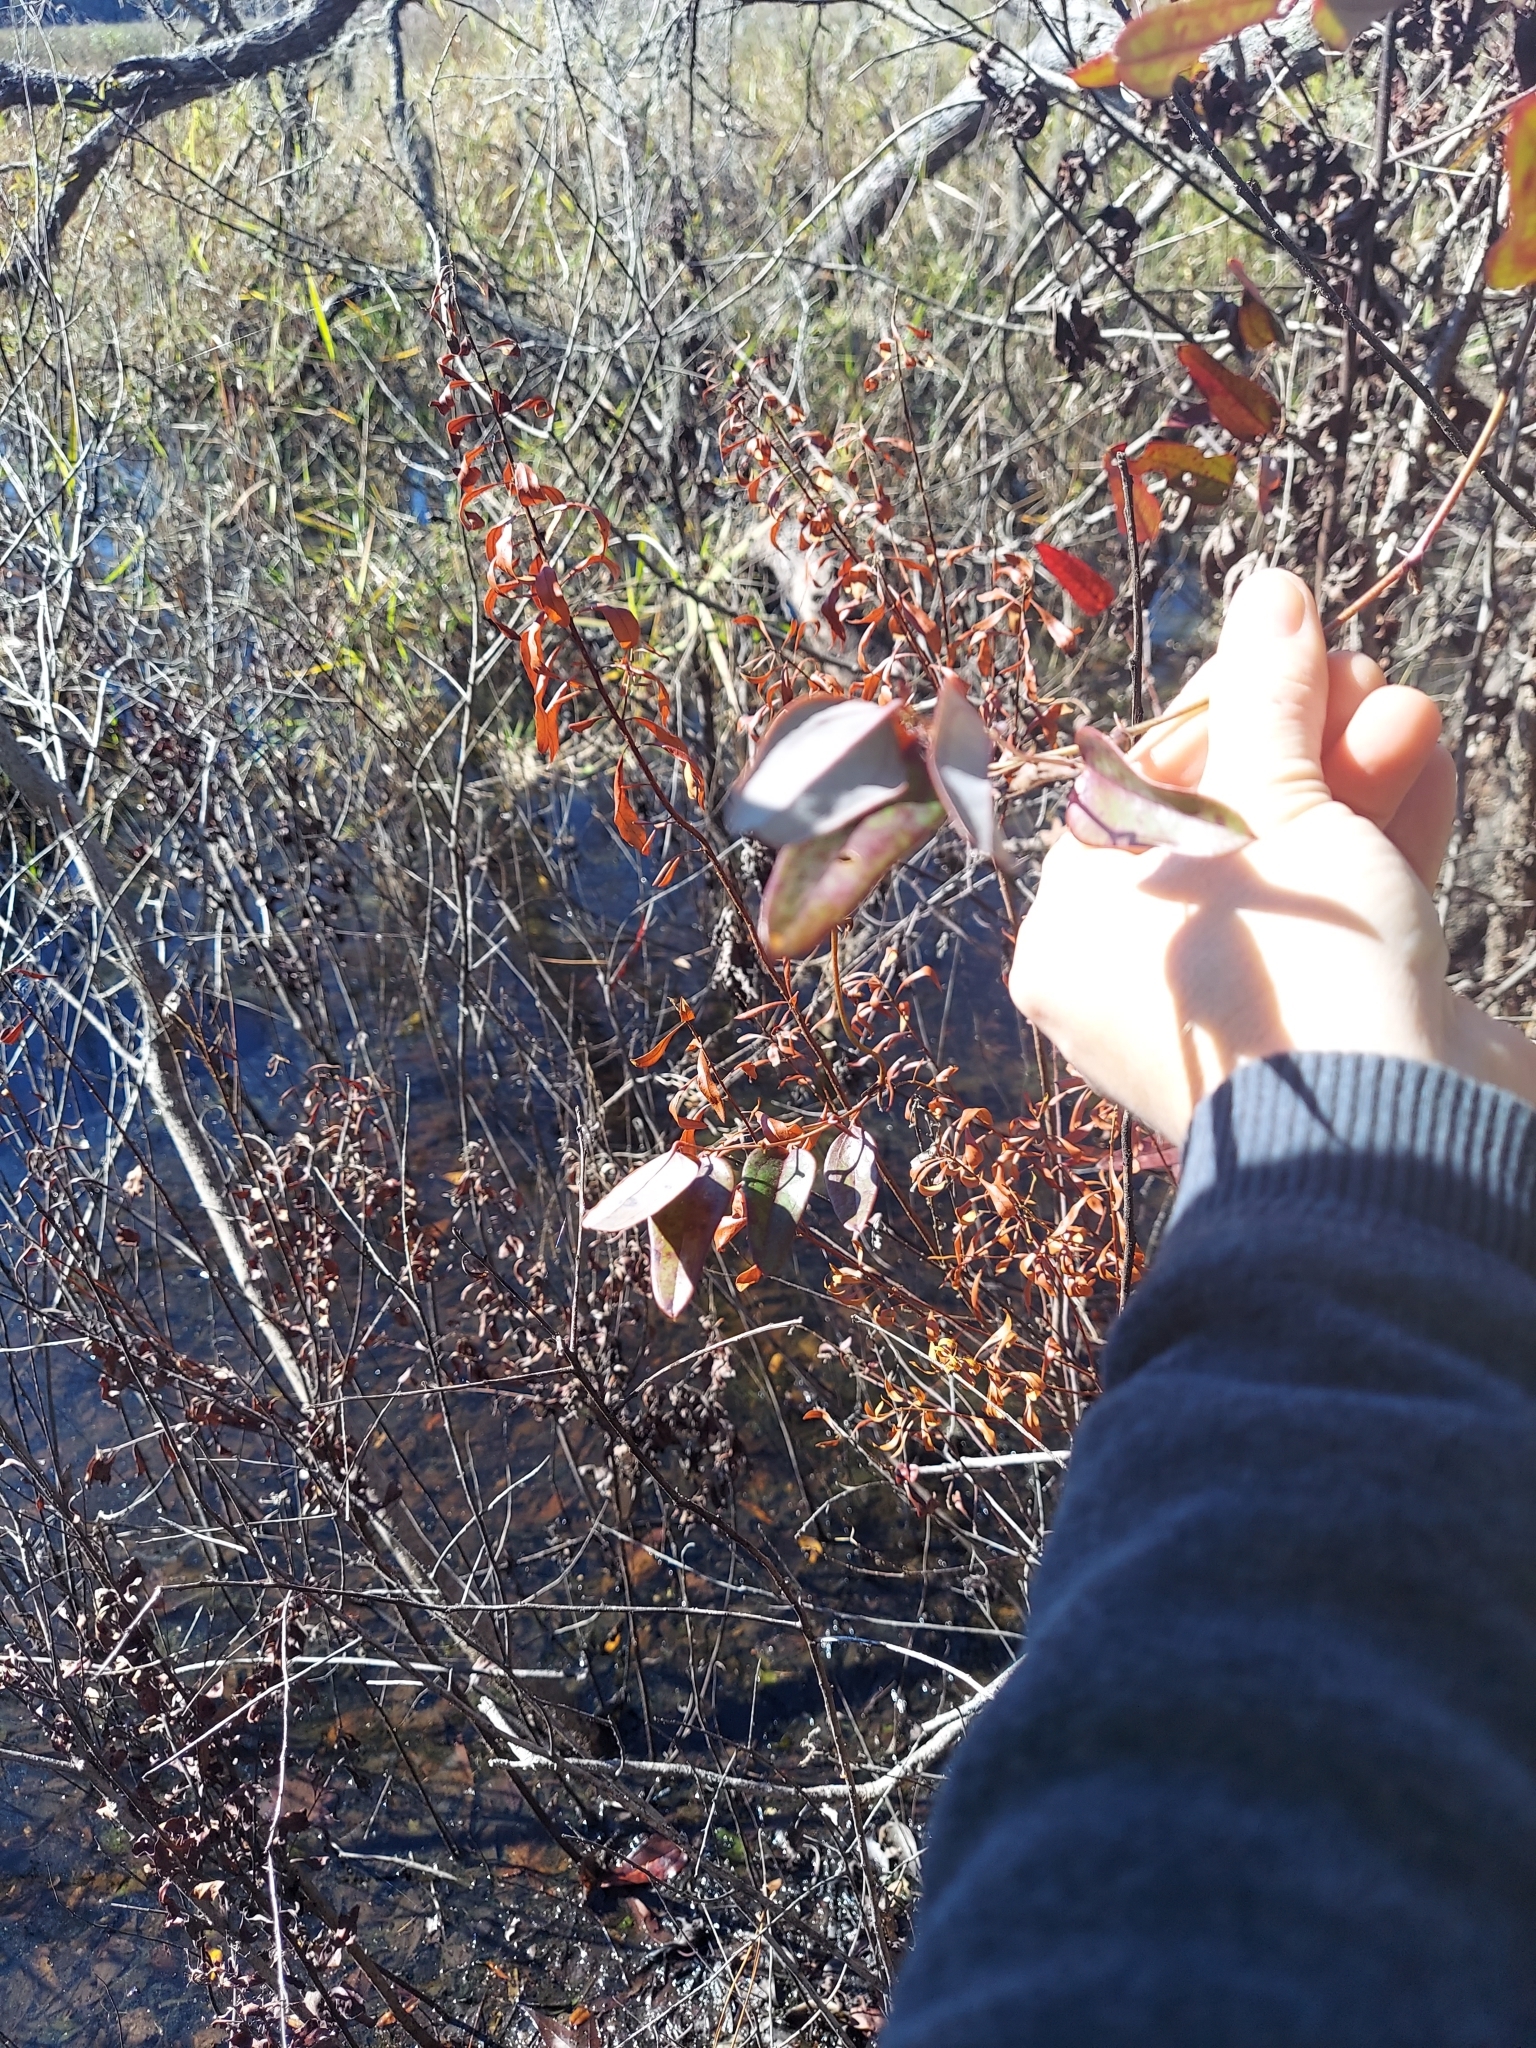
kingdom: Plantae
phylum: Tracheophyta
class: Liliopsida
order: Liliales
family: Smilacaceae
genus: Smilax
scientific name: Smilax glauca
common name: Cat greenbrier
